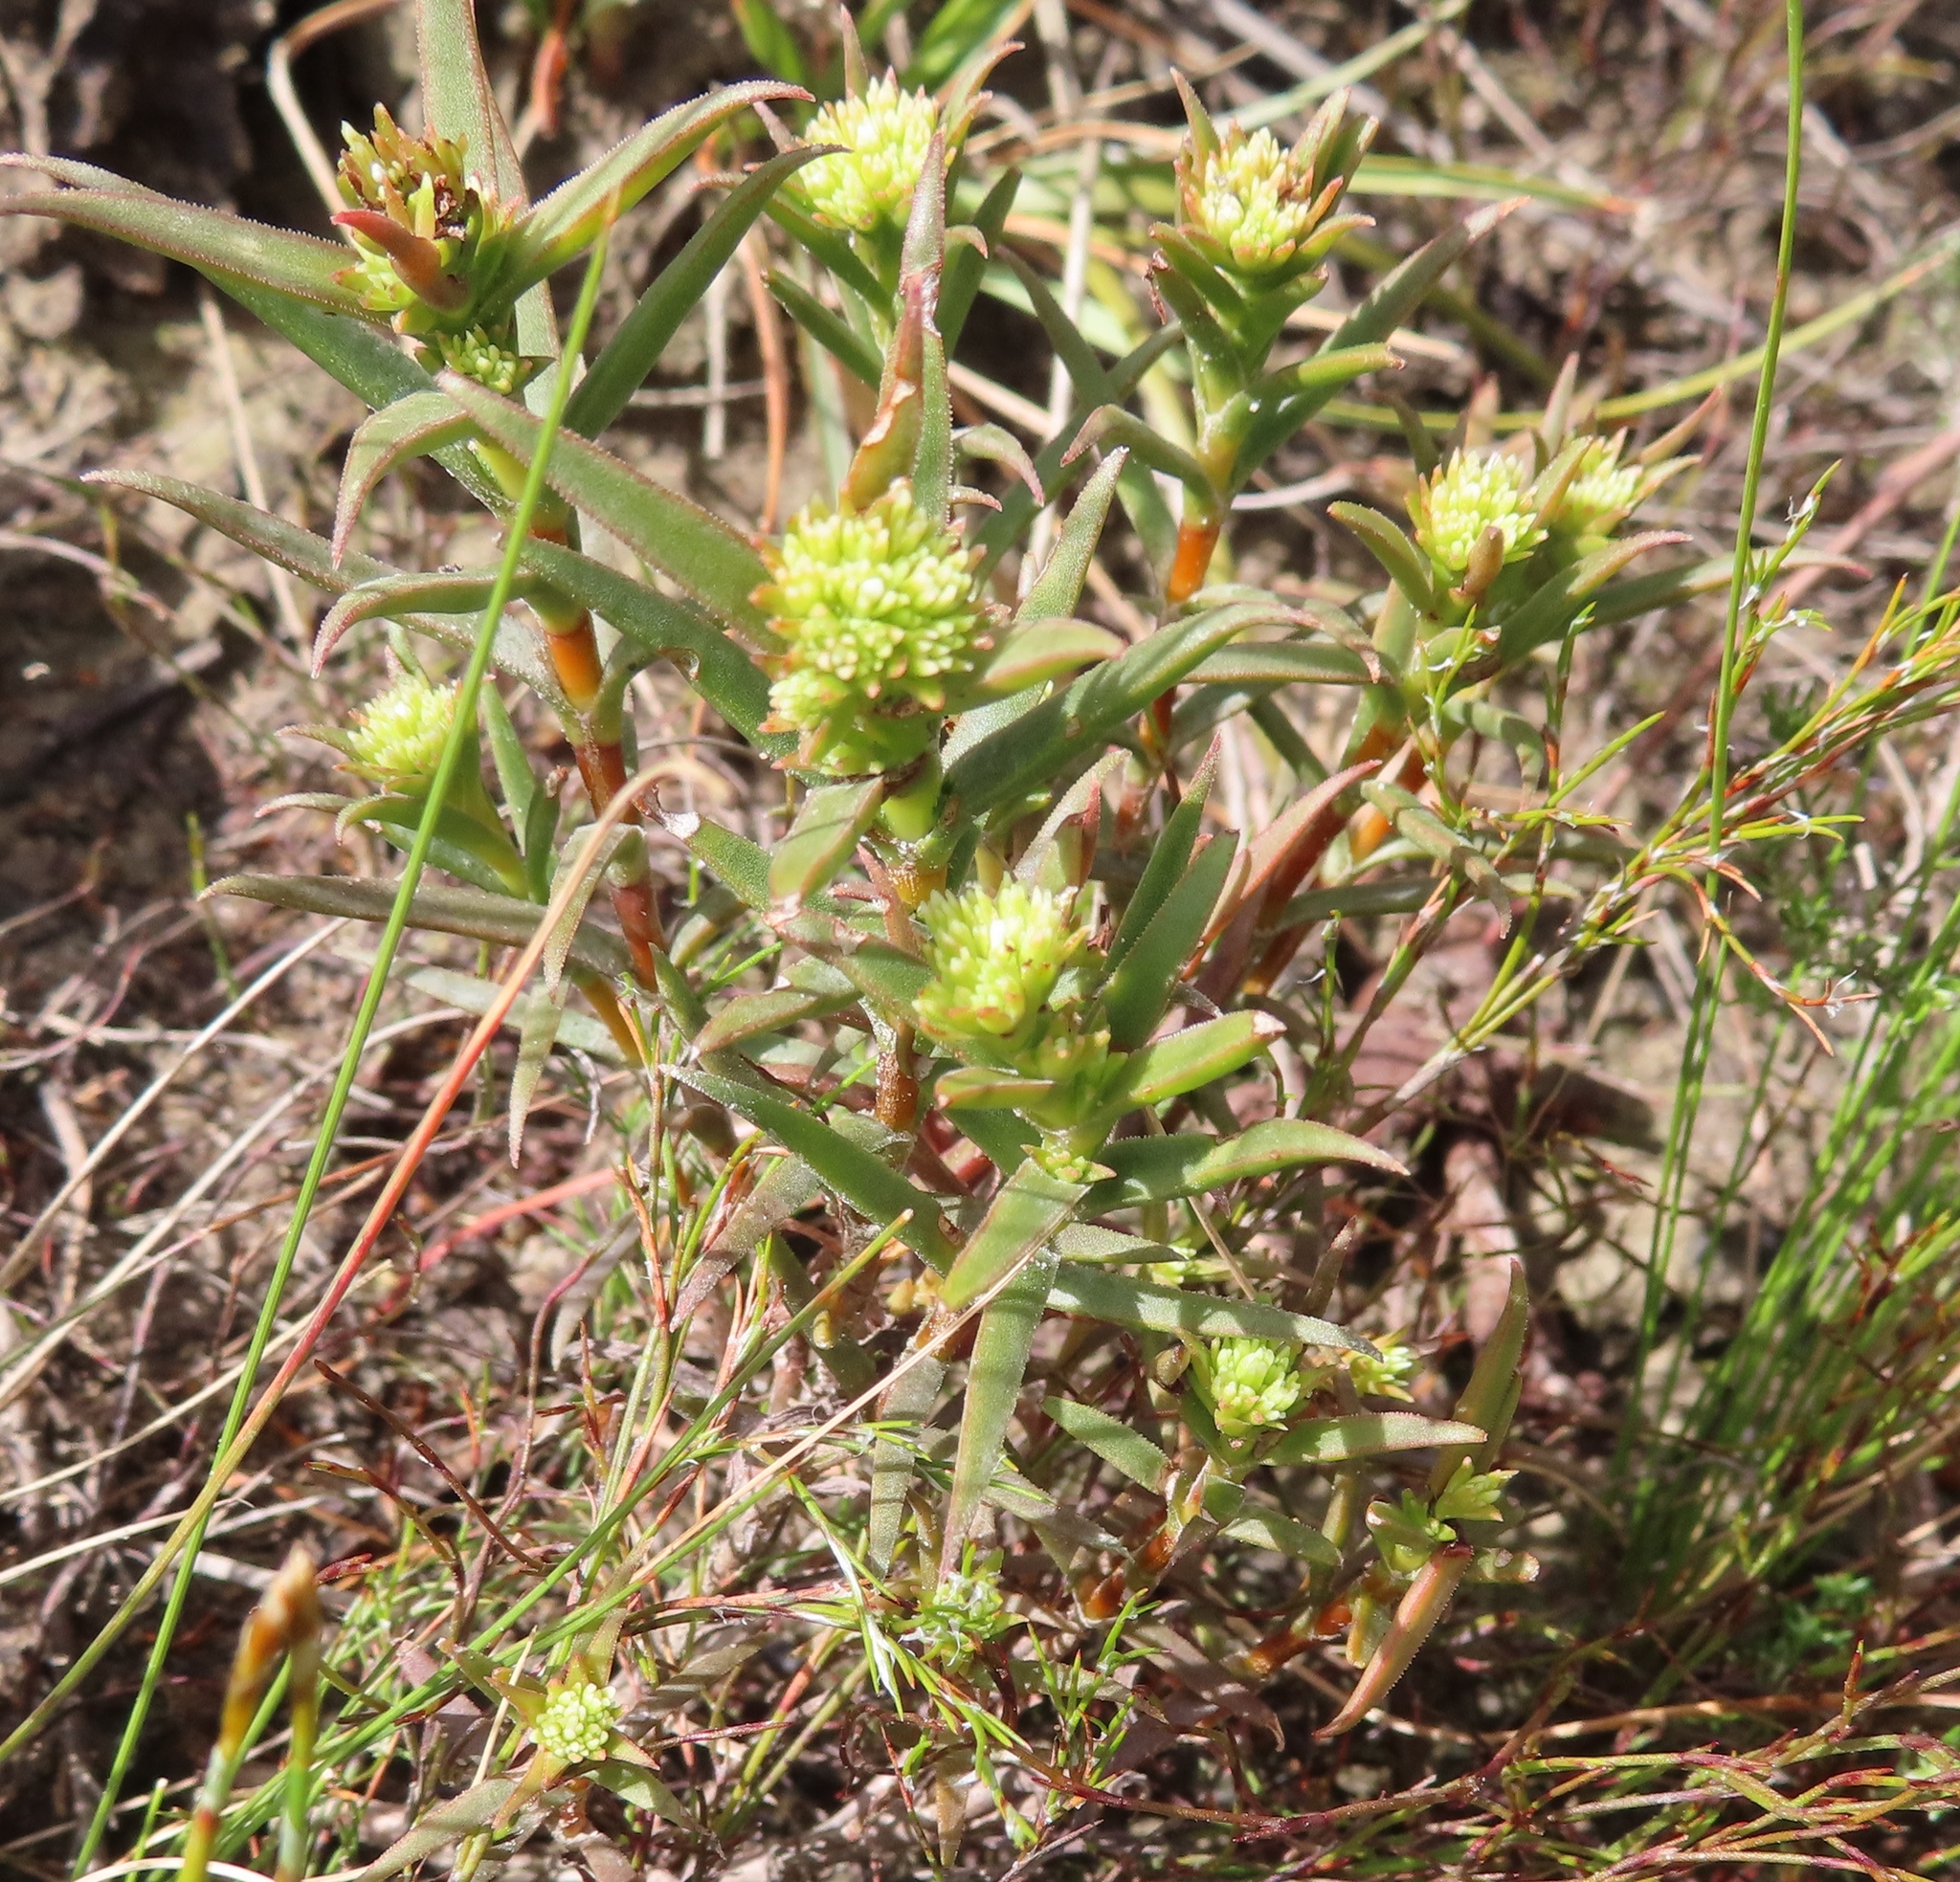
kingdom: Plantae
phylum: Tracheophyta
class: Magnoliopsida
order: Saxifragales
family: Crassulaceae
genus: Crassula
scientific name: Crassula subulata
